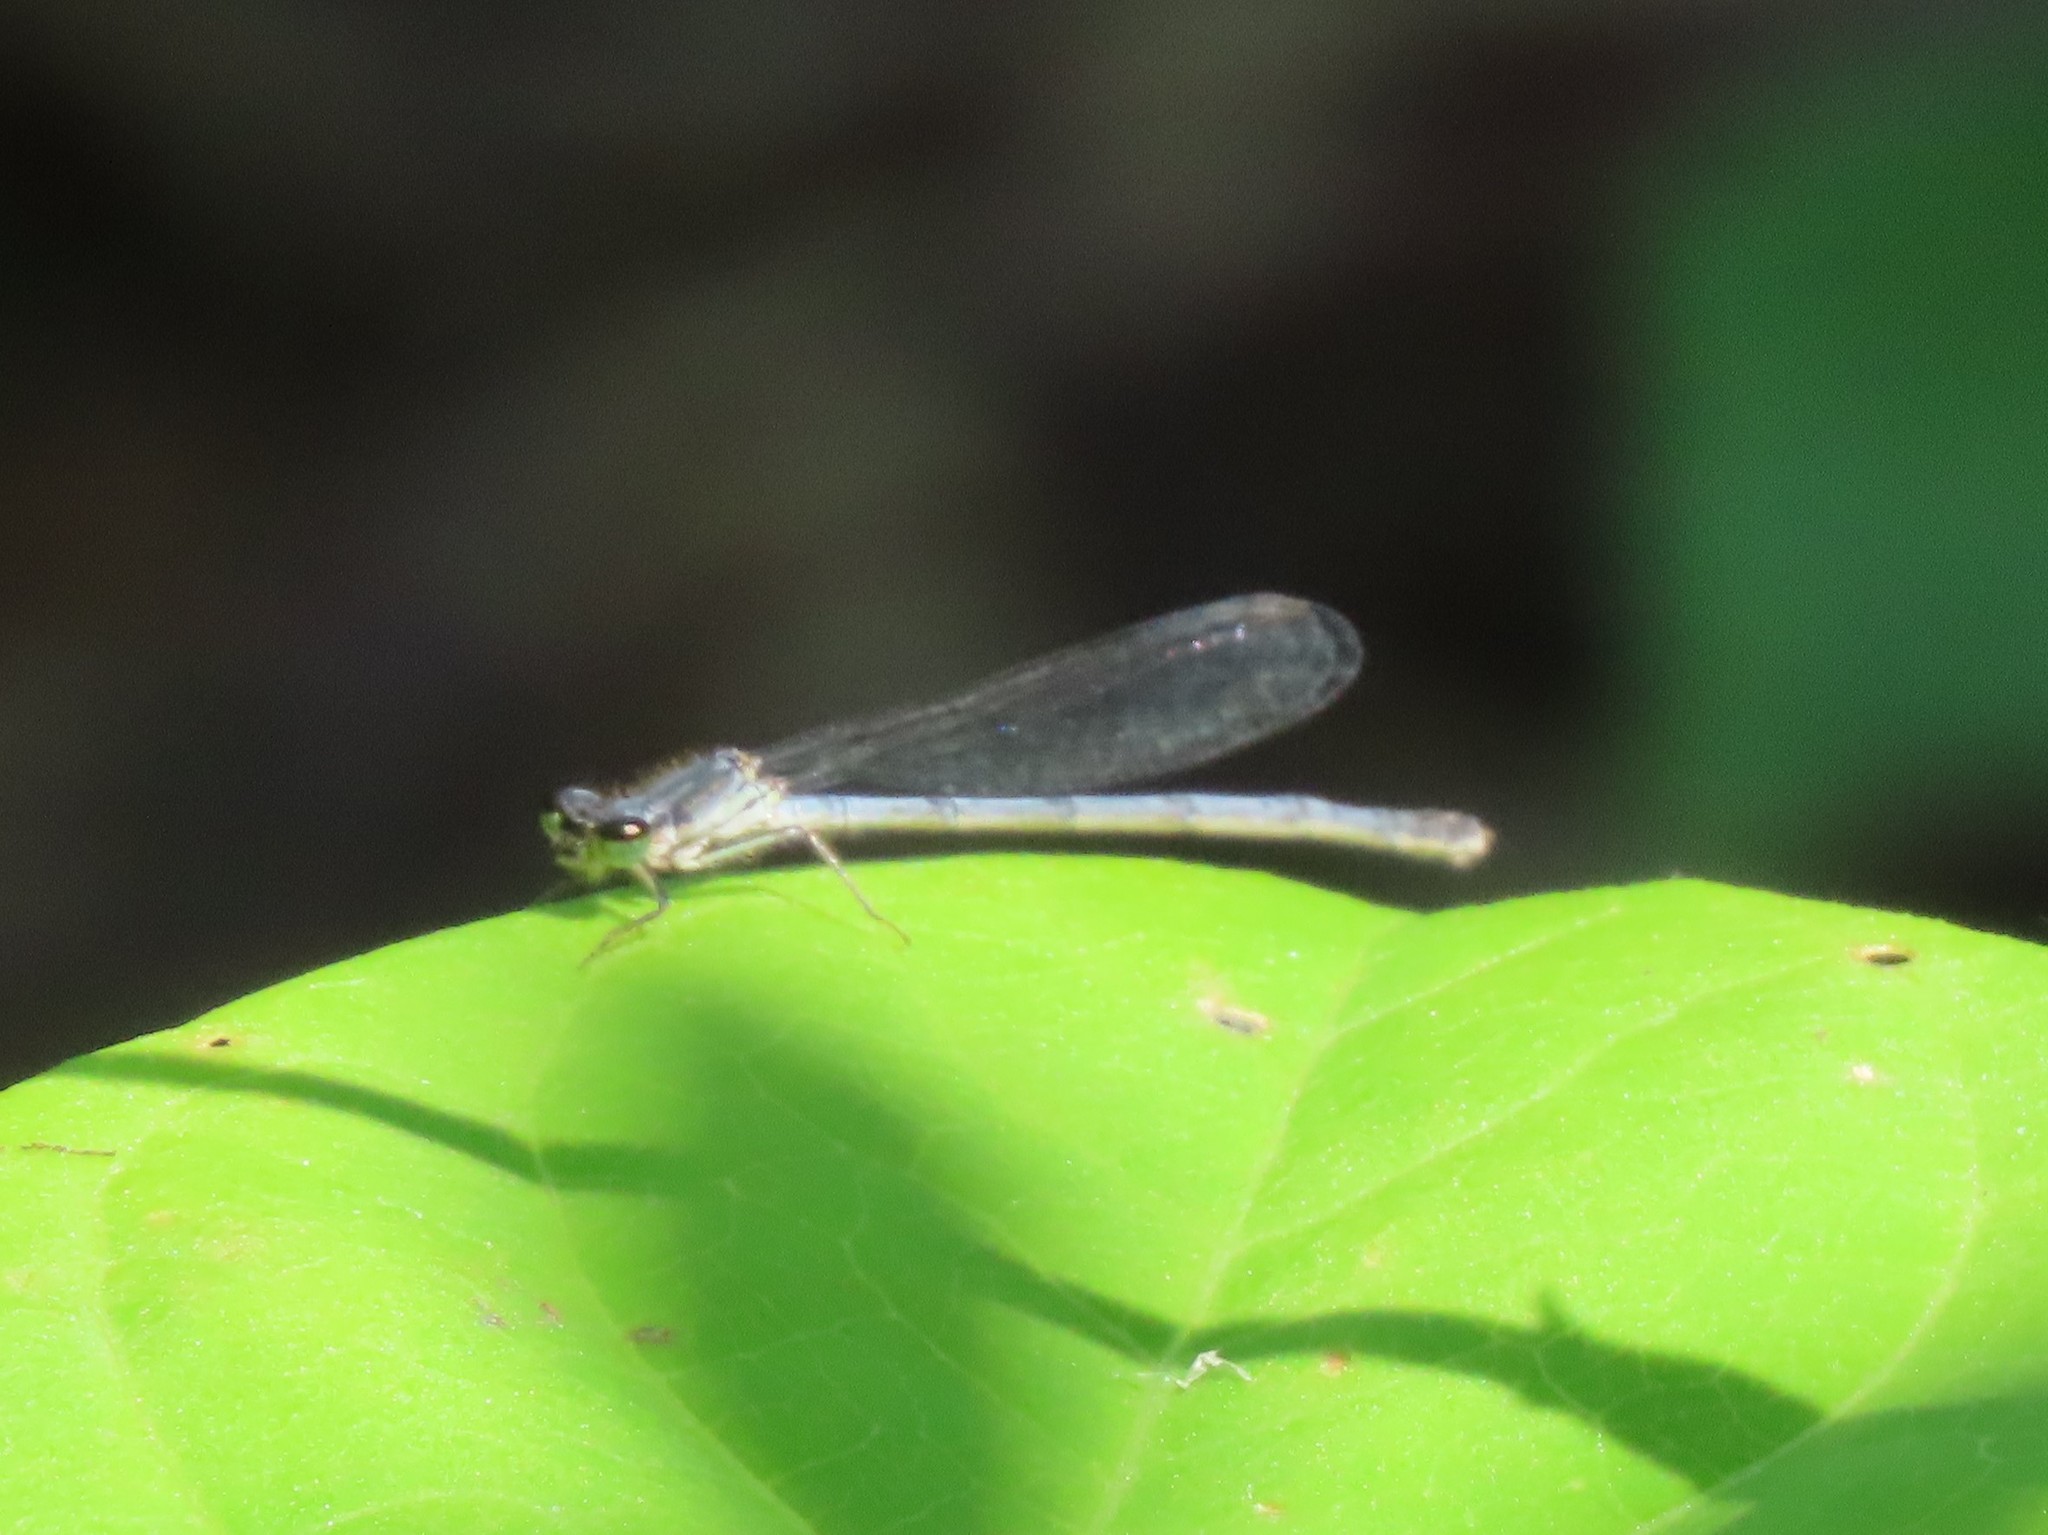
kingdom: Animalia
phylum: Arthropoda
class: Insecta
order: Odonata
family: Coenagrionidae
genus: Ischnura
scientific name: Ischnura posita
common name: Fragile forktail
